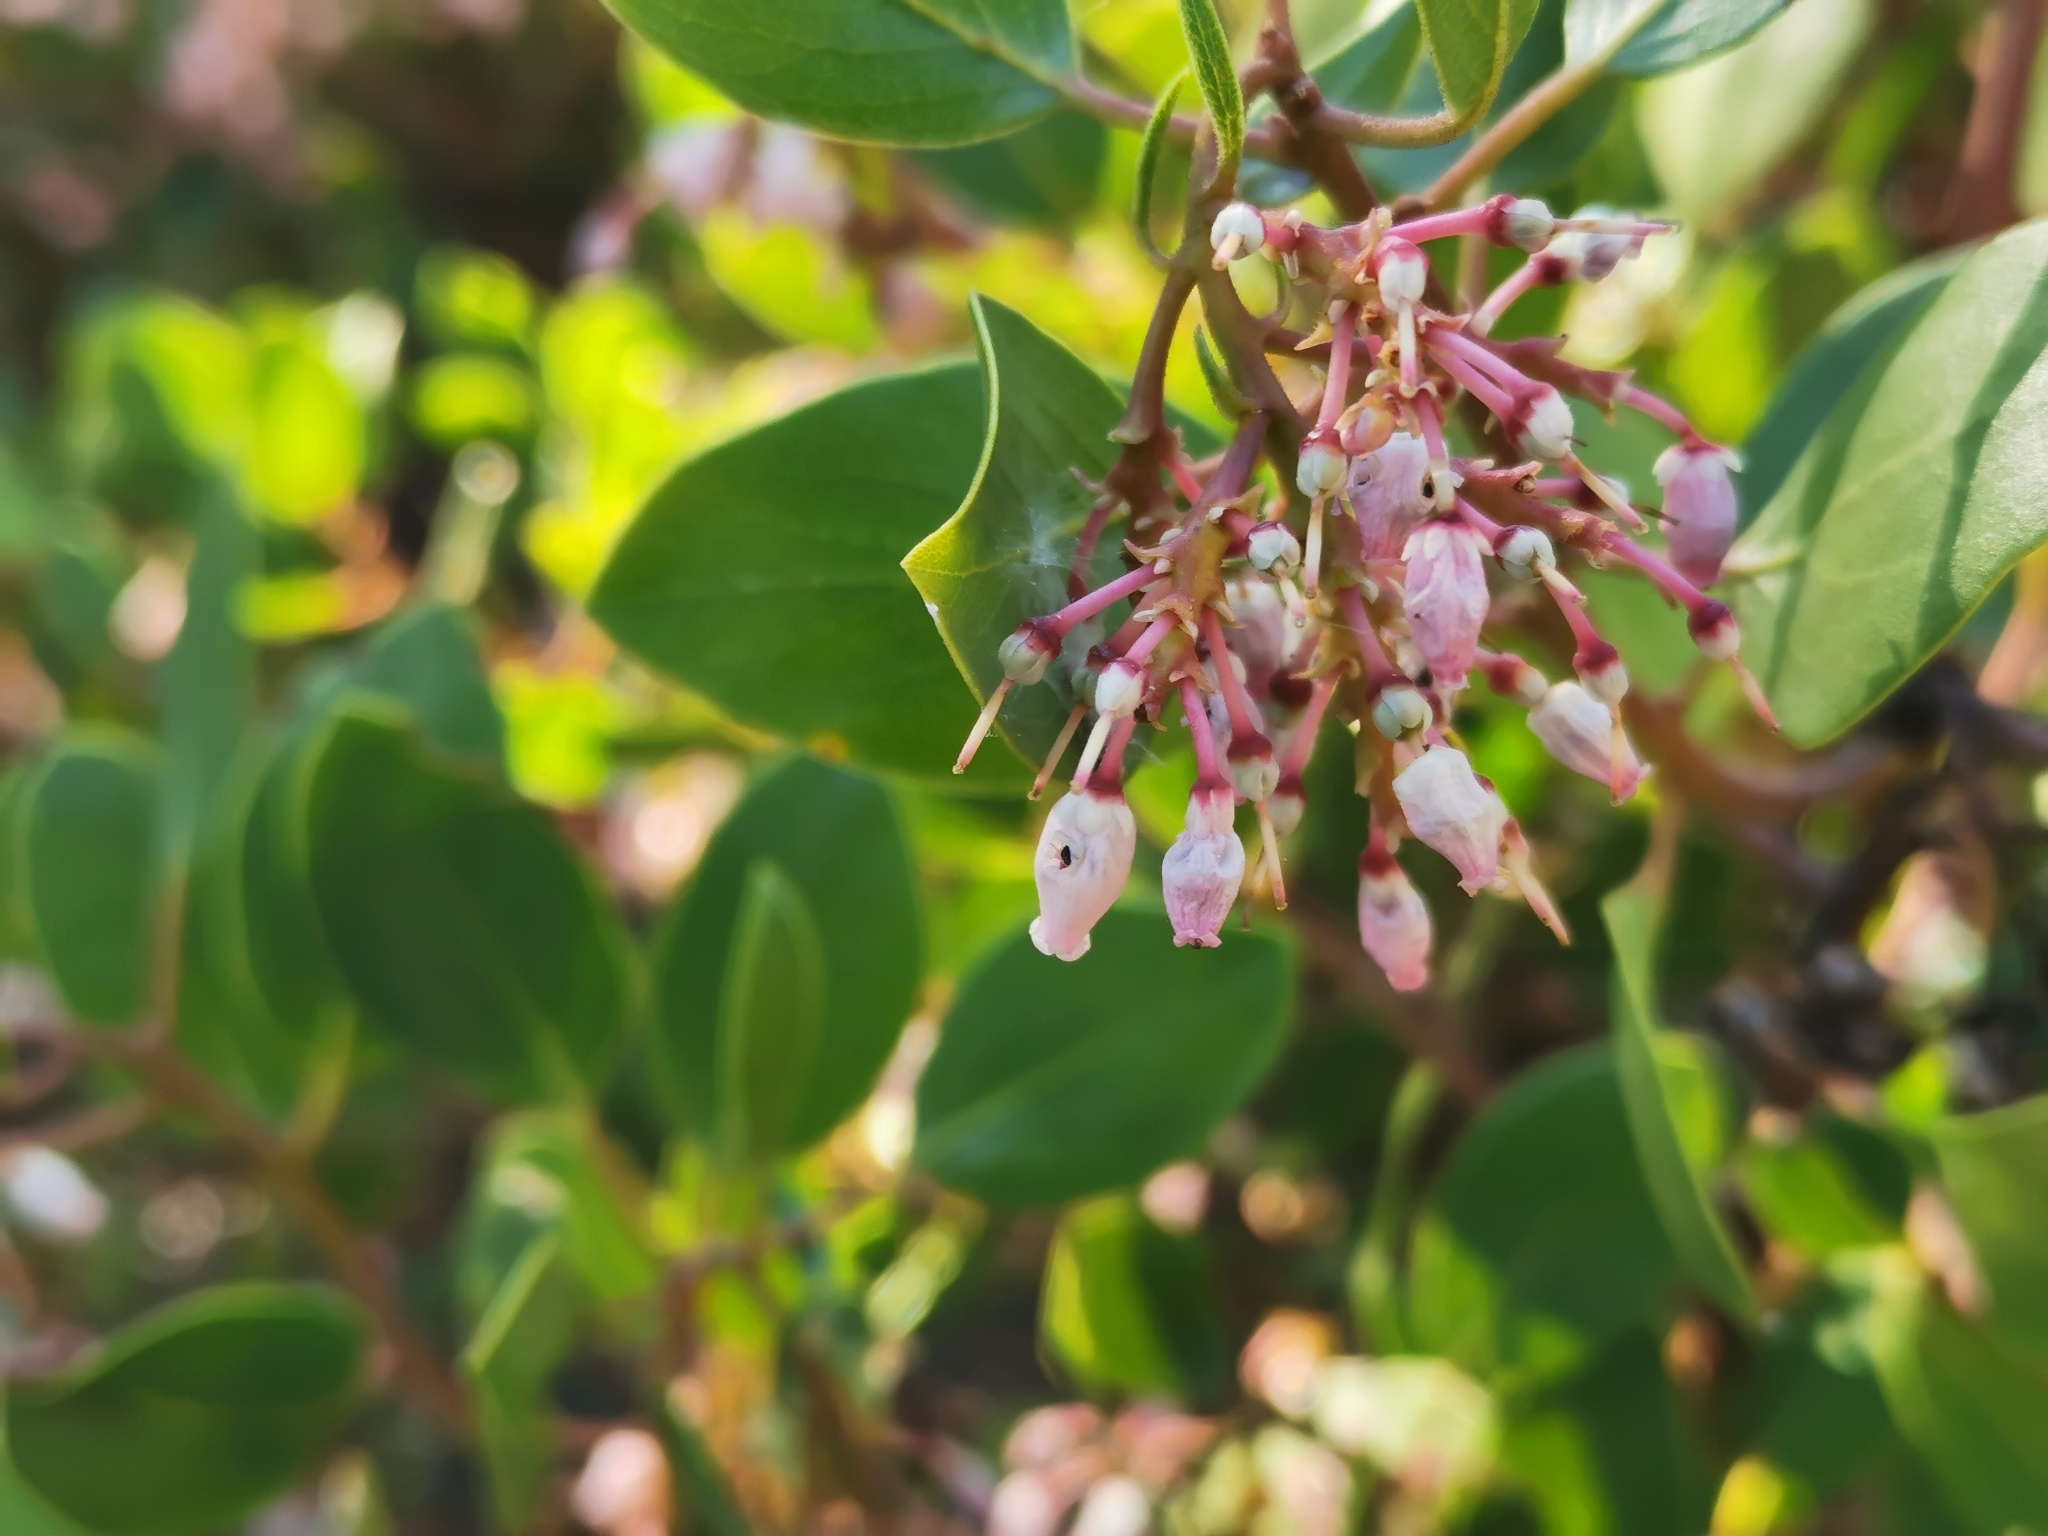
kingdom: Plantae
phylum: Tracheophyta
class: Magnoliopsida
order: Ericales
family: Ericaceae
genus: Arctostaphylos
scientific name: Arctostaphylos patula
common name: Green-leaf manzanita
